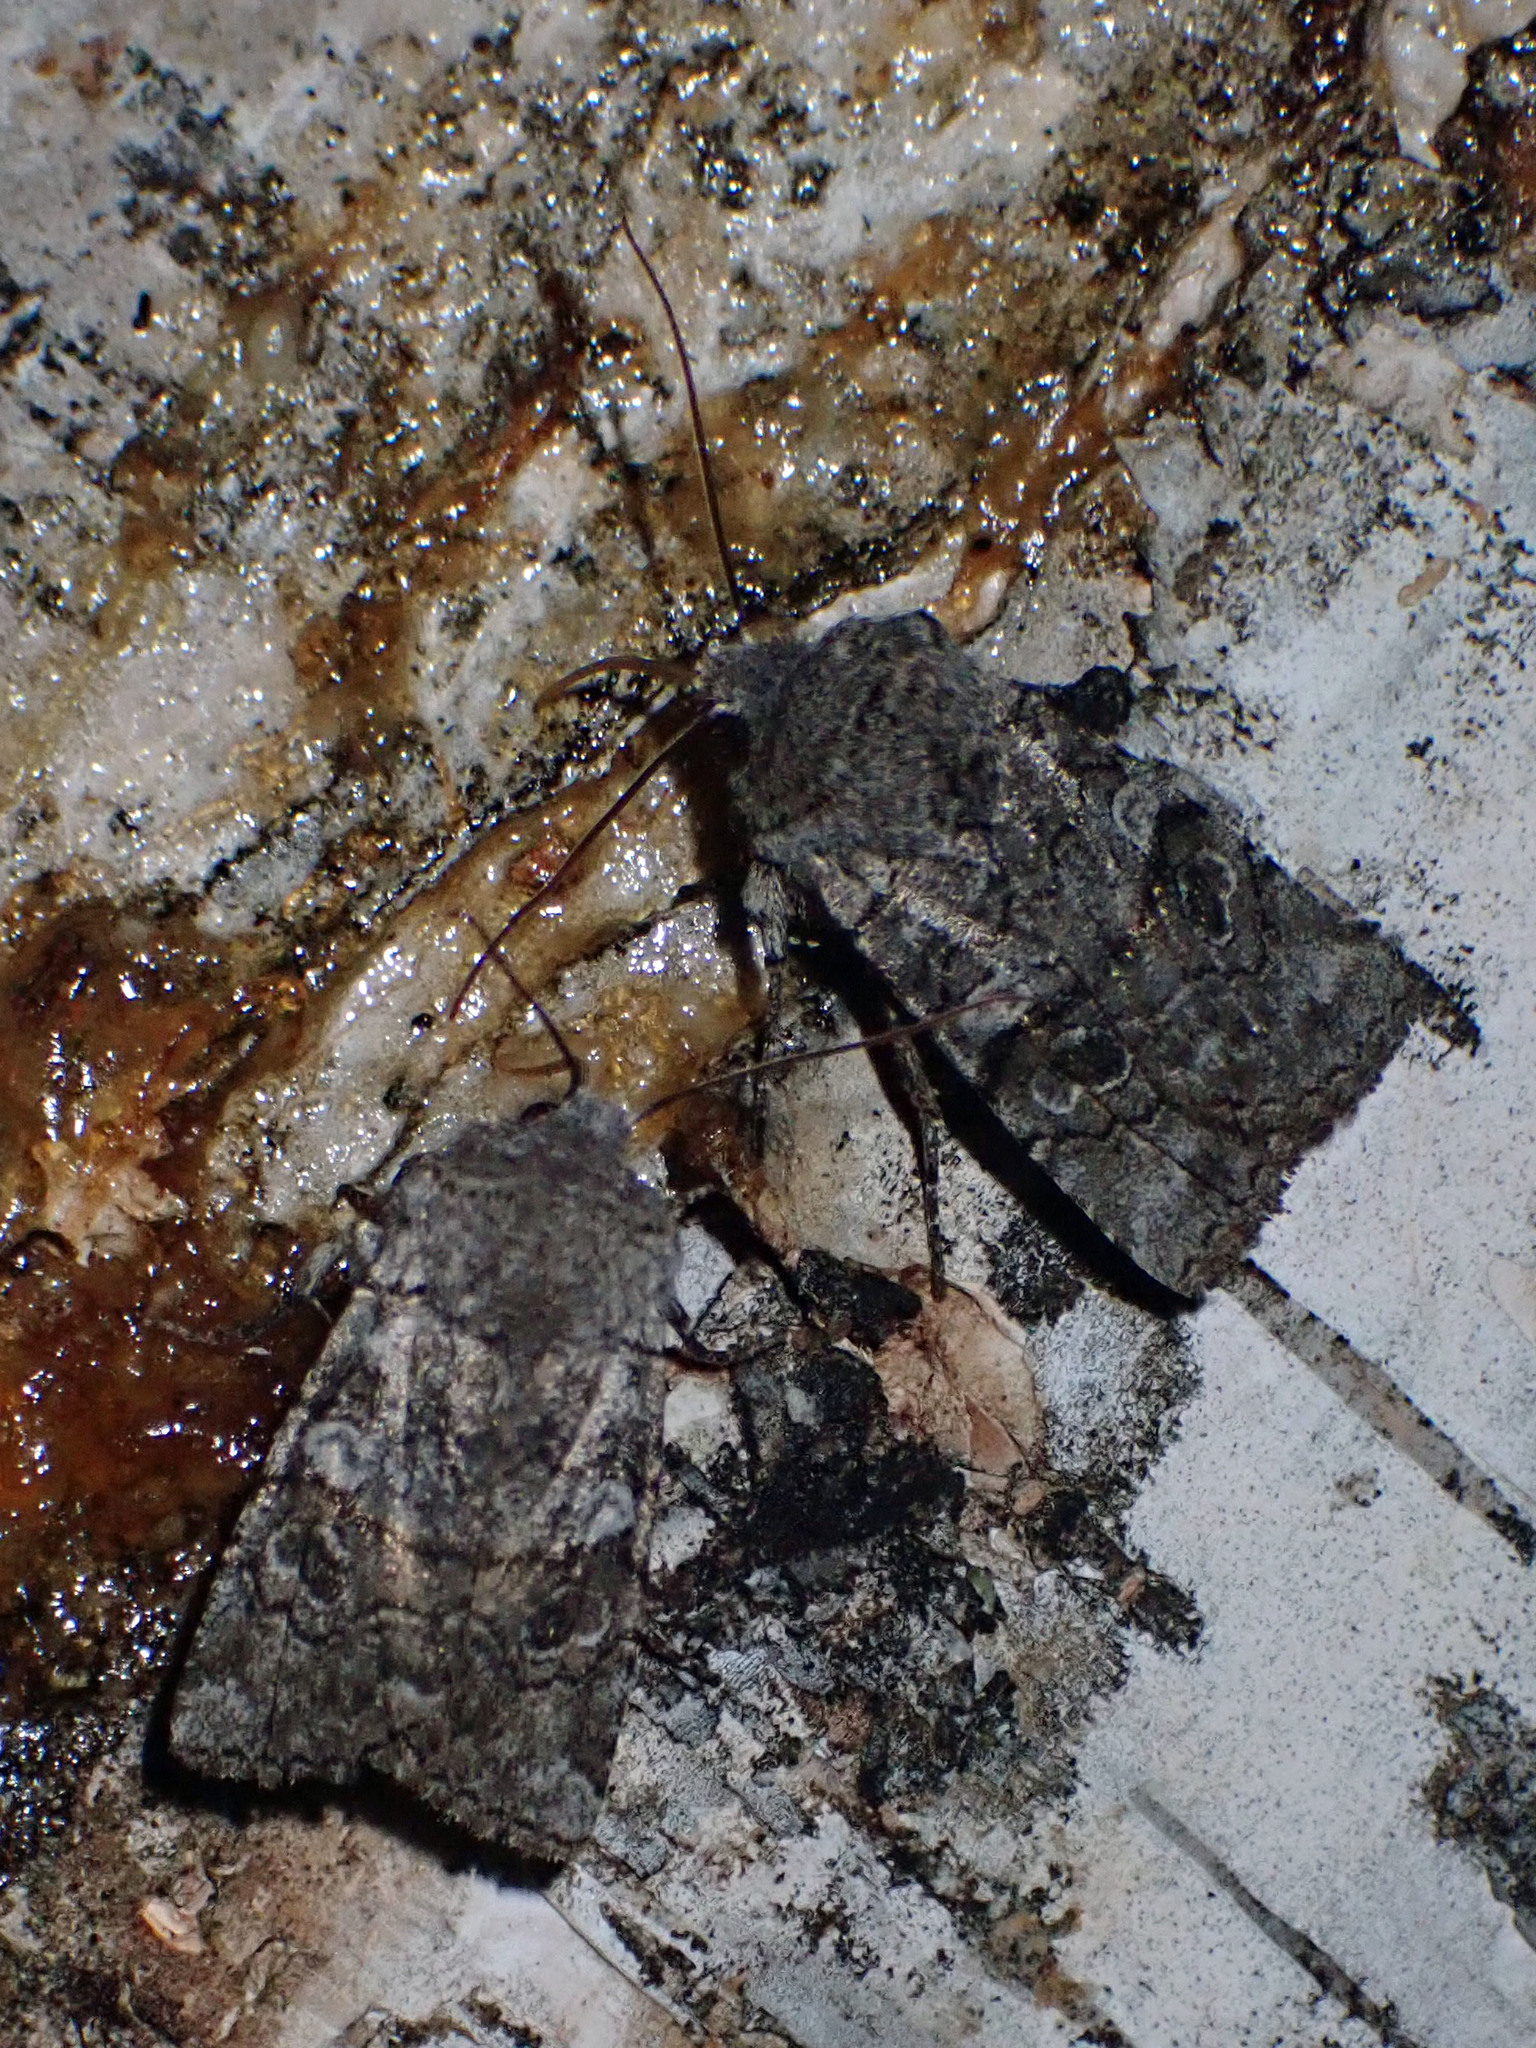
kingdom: Animalia
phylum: Arthropoda
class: Insecta
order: Lepidoptera
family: Noctuidae
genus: Litholomia
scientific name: Litholomia napaea
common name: False pinion moth
